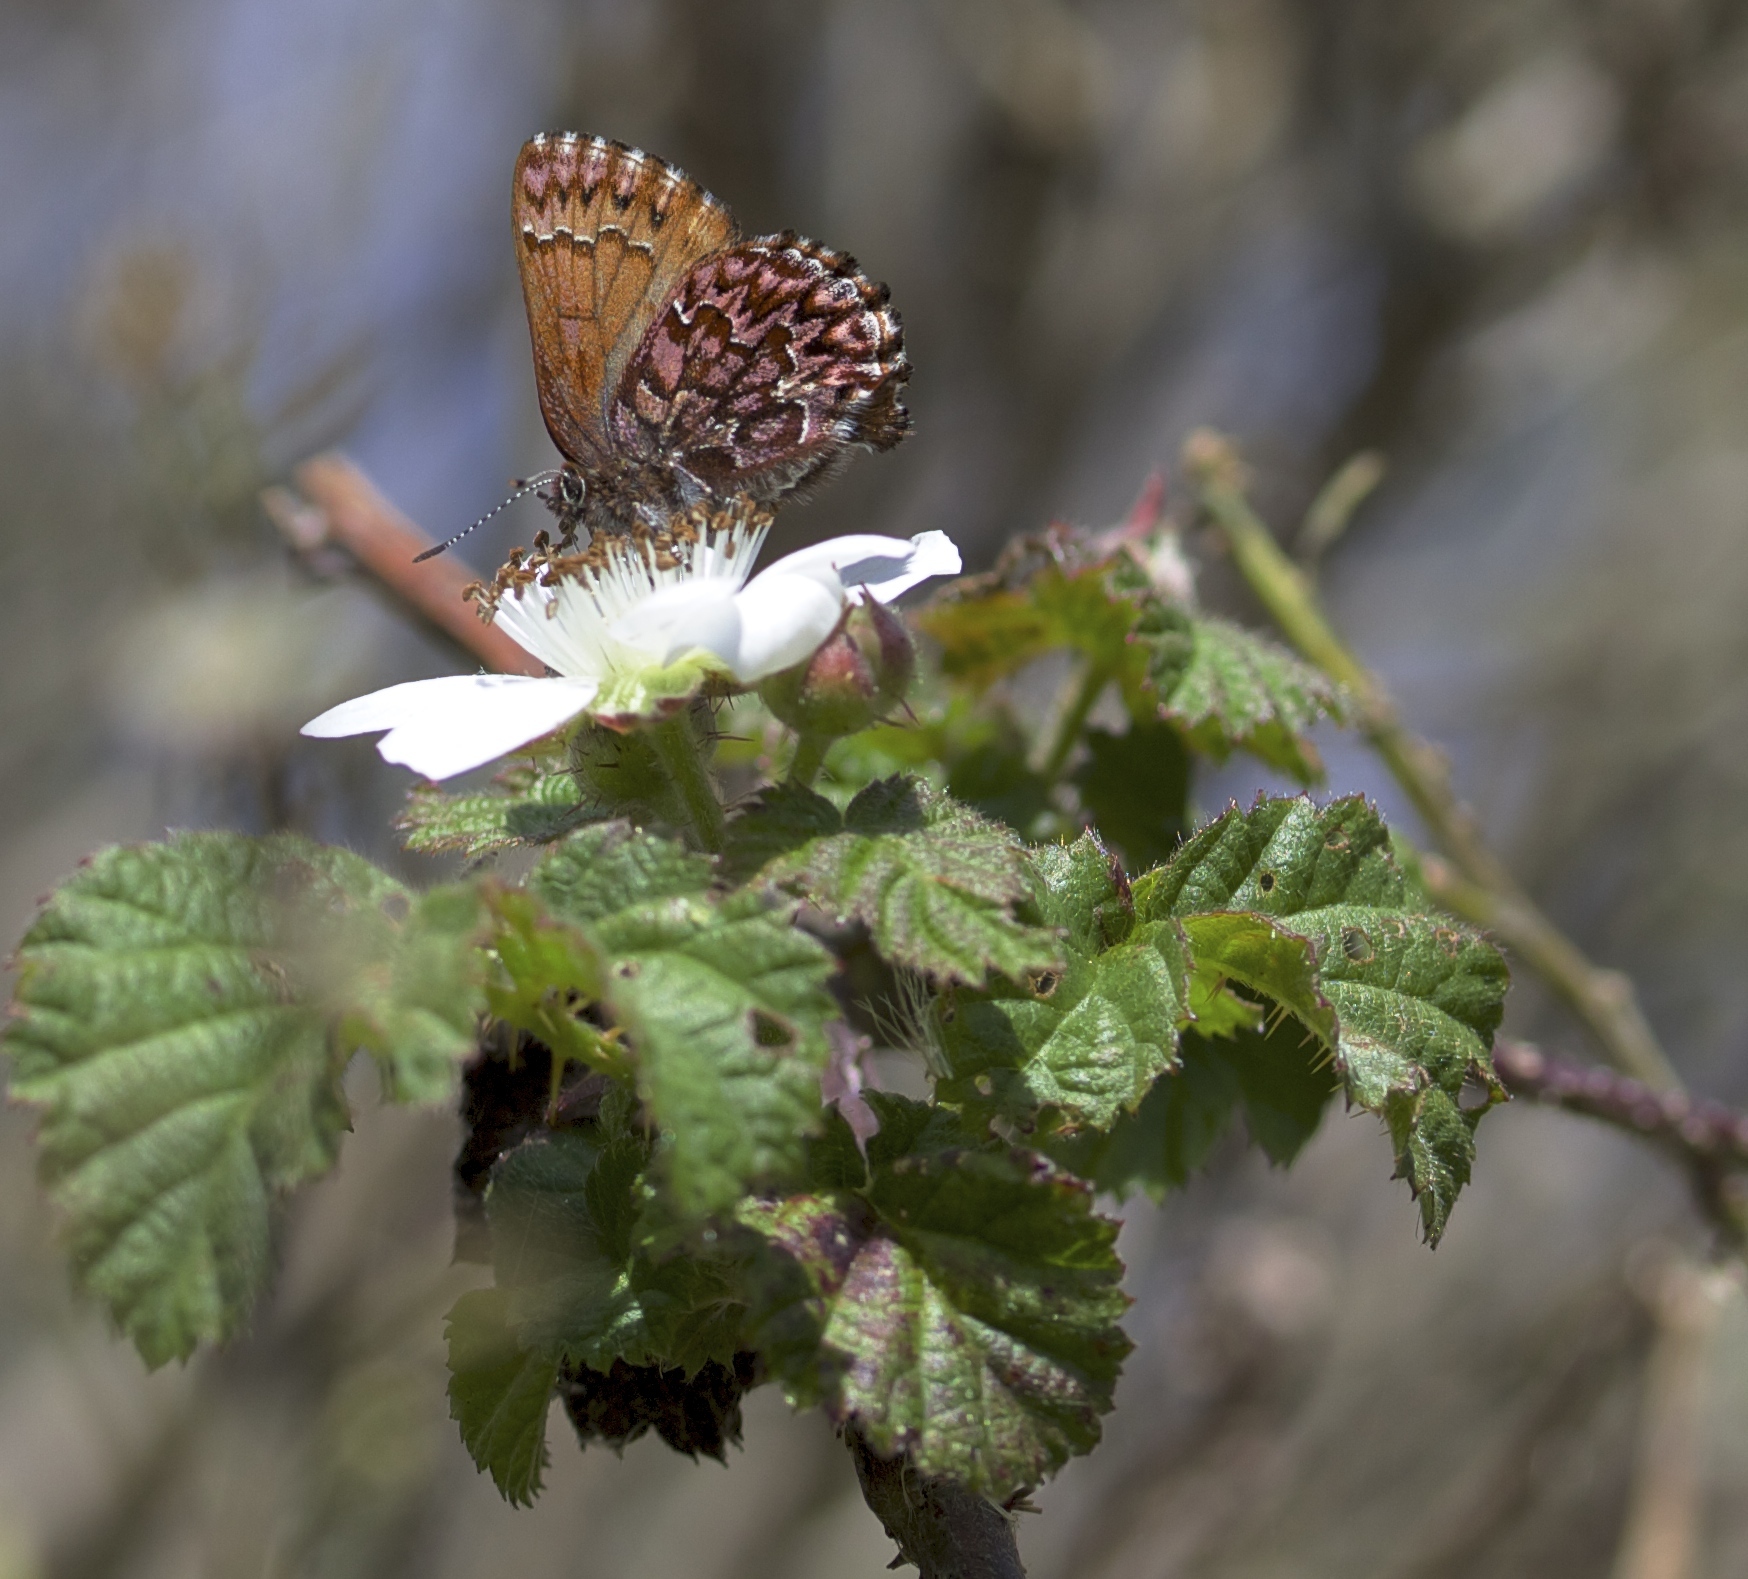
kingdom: Animalia
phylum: Arthropoda
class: Insecta
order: Lepidoptera
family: Lycaenidae
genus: Incisalia
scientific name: Incisalia eryphon
